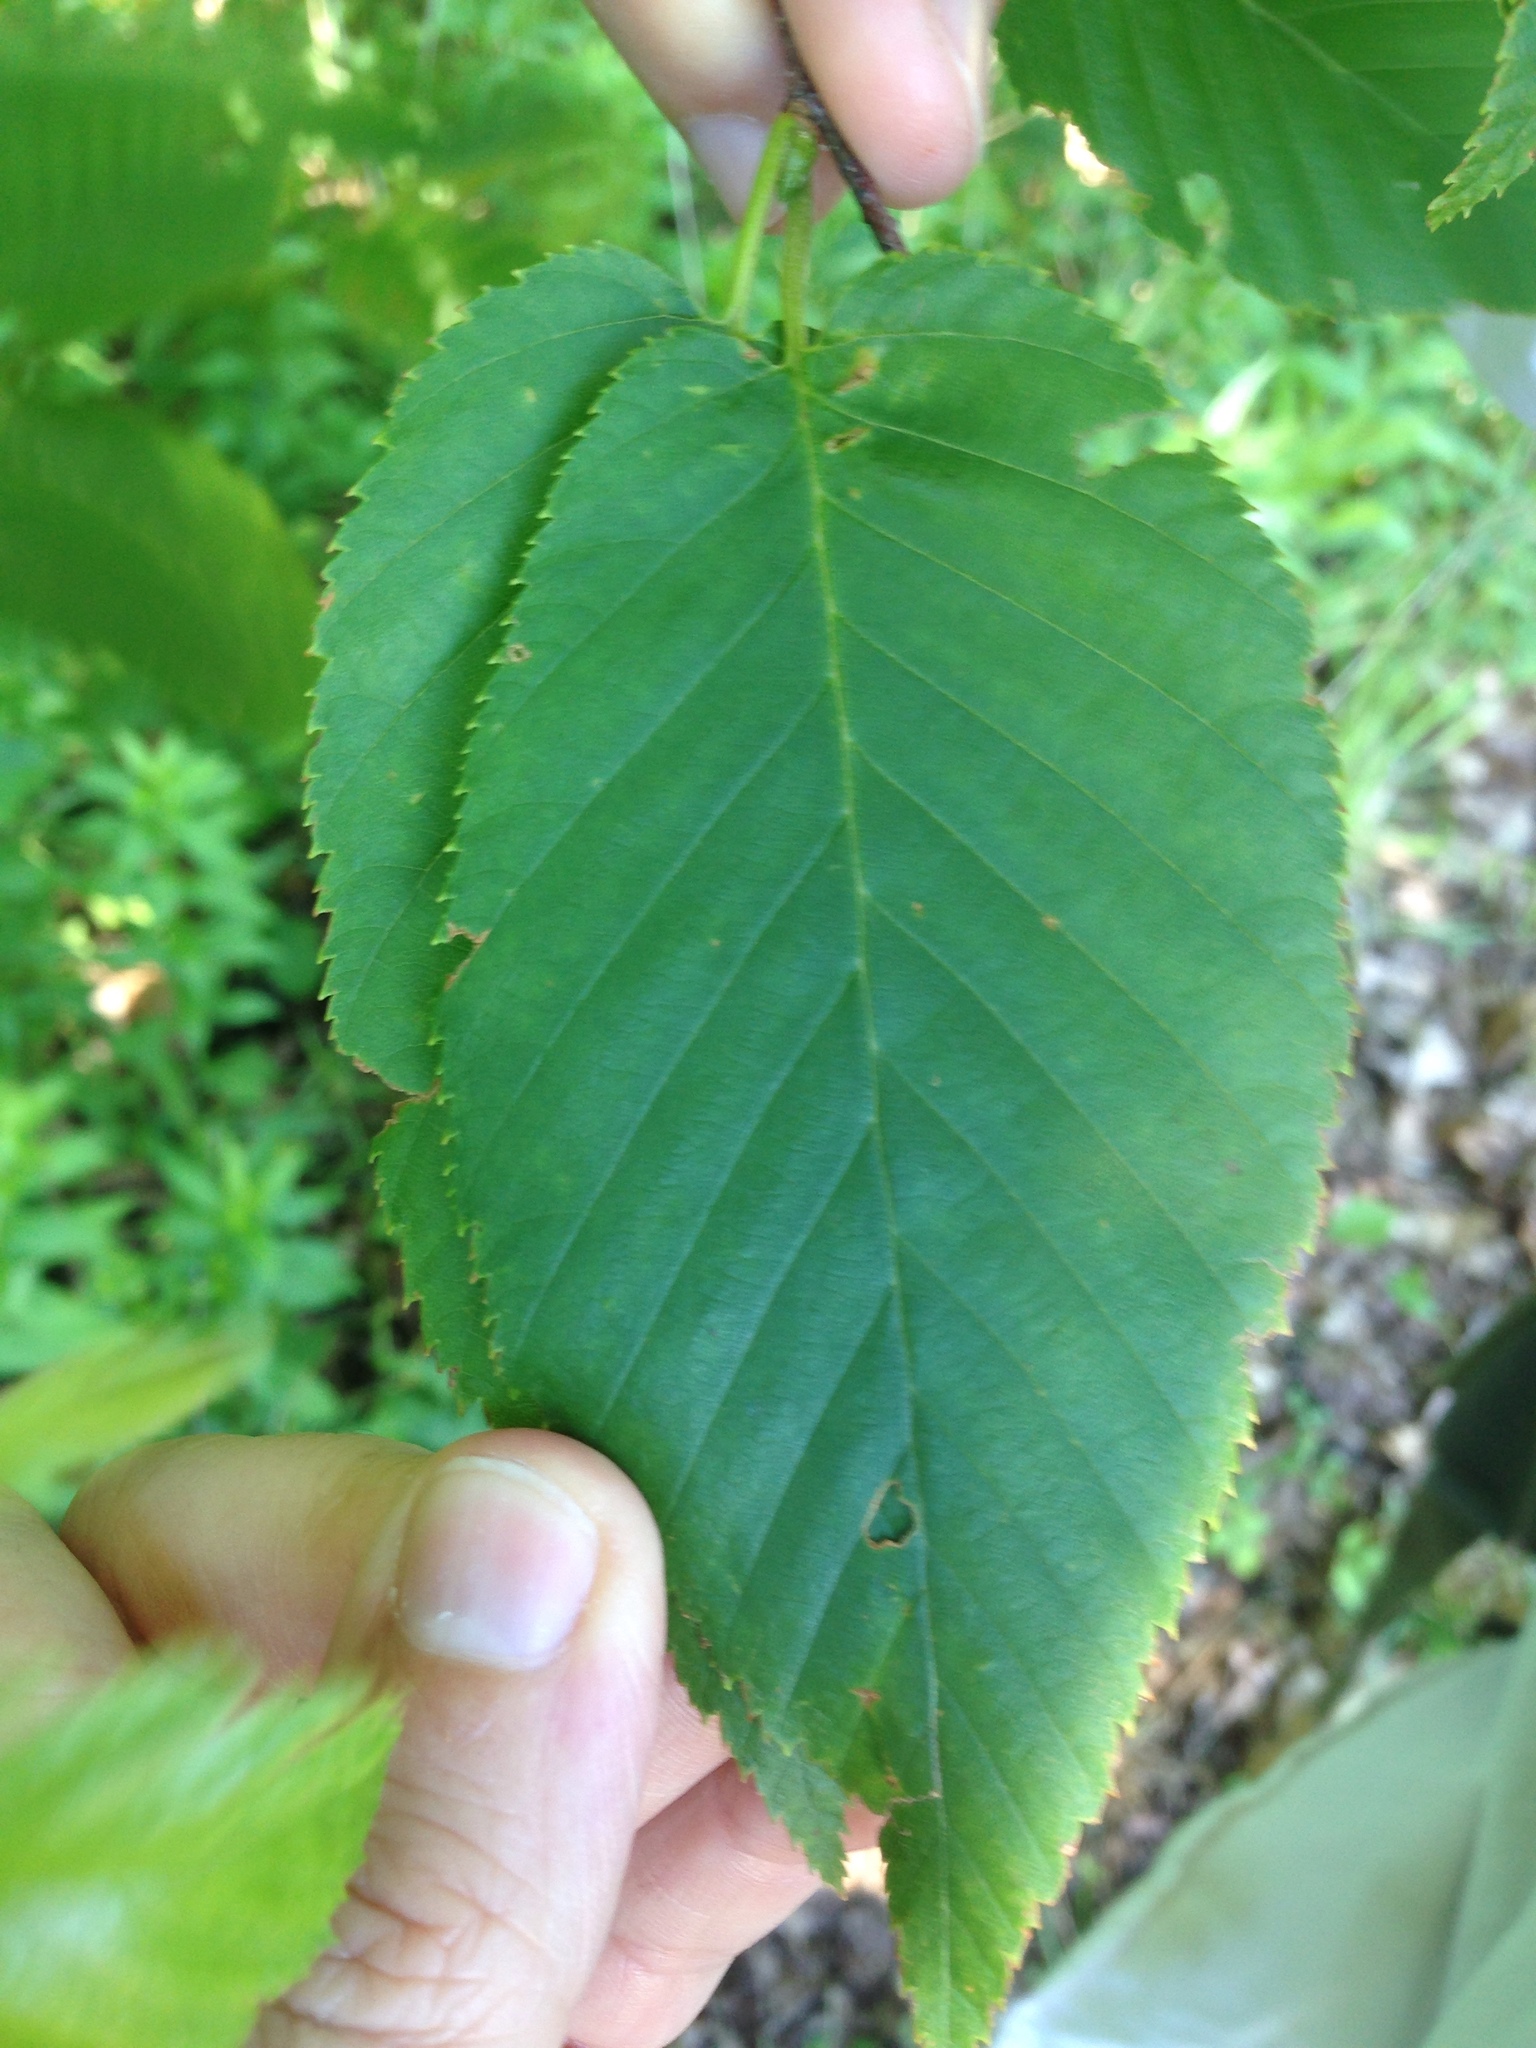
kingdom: Plantae
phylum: Tracheophyta
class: Magnoliopsida
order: Fagales
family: Betulaceae
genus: Betula
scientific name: Betula lenta
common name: Black birch
